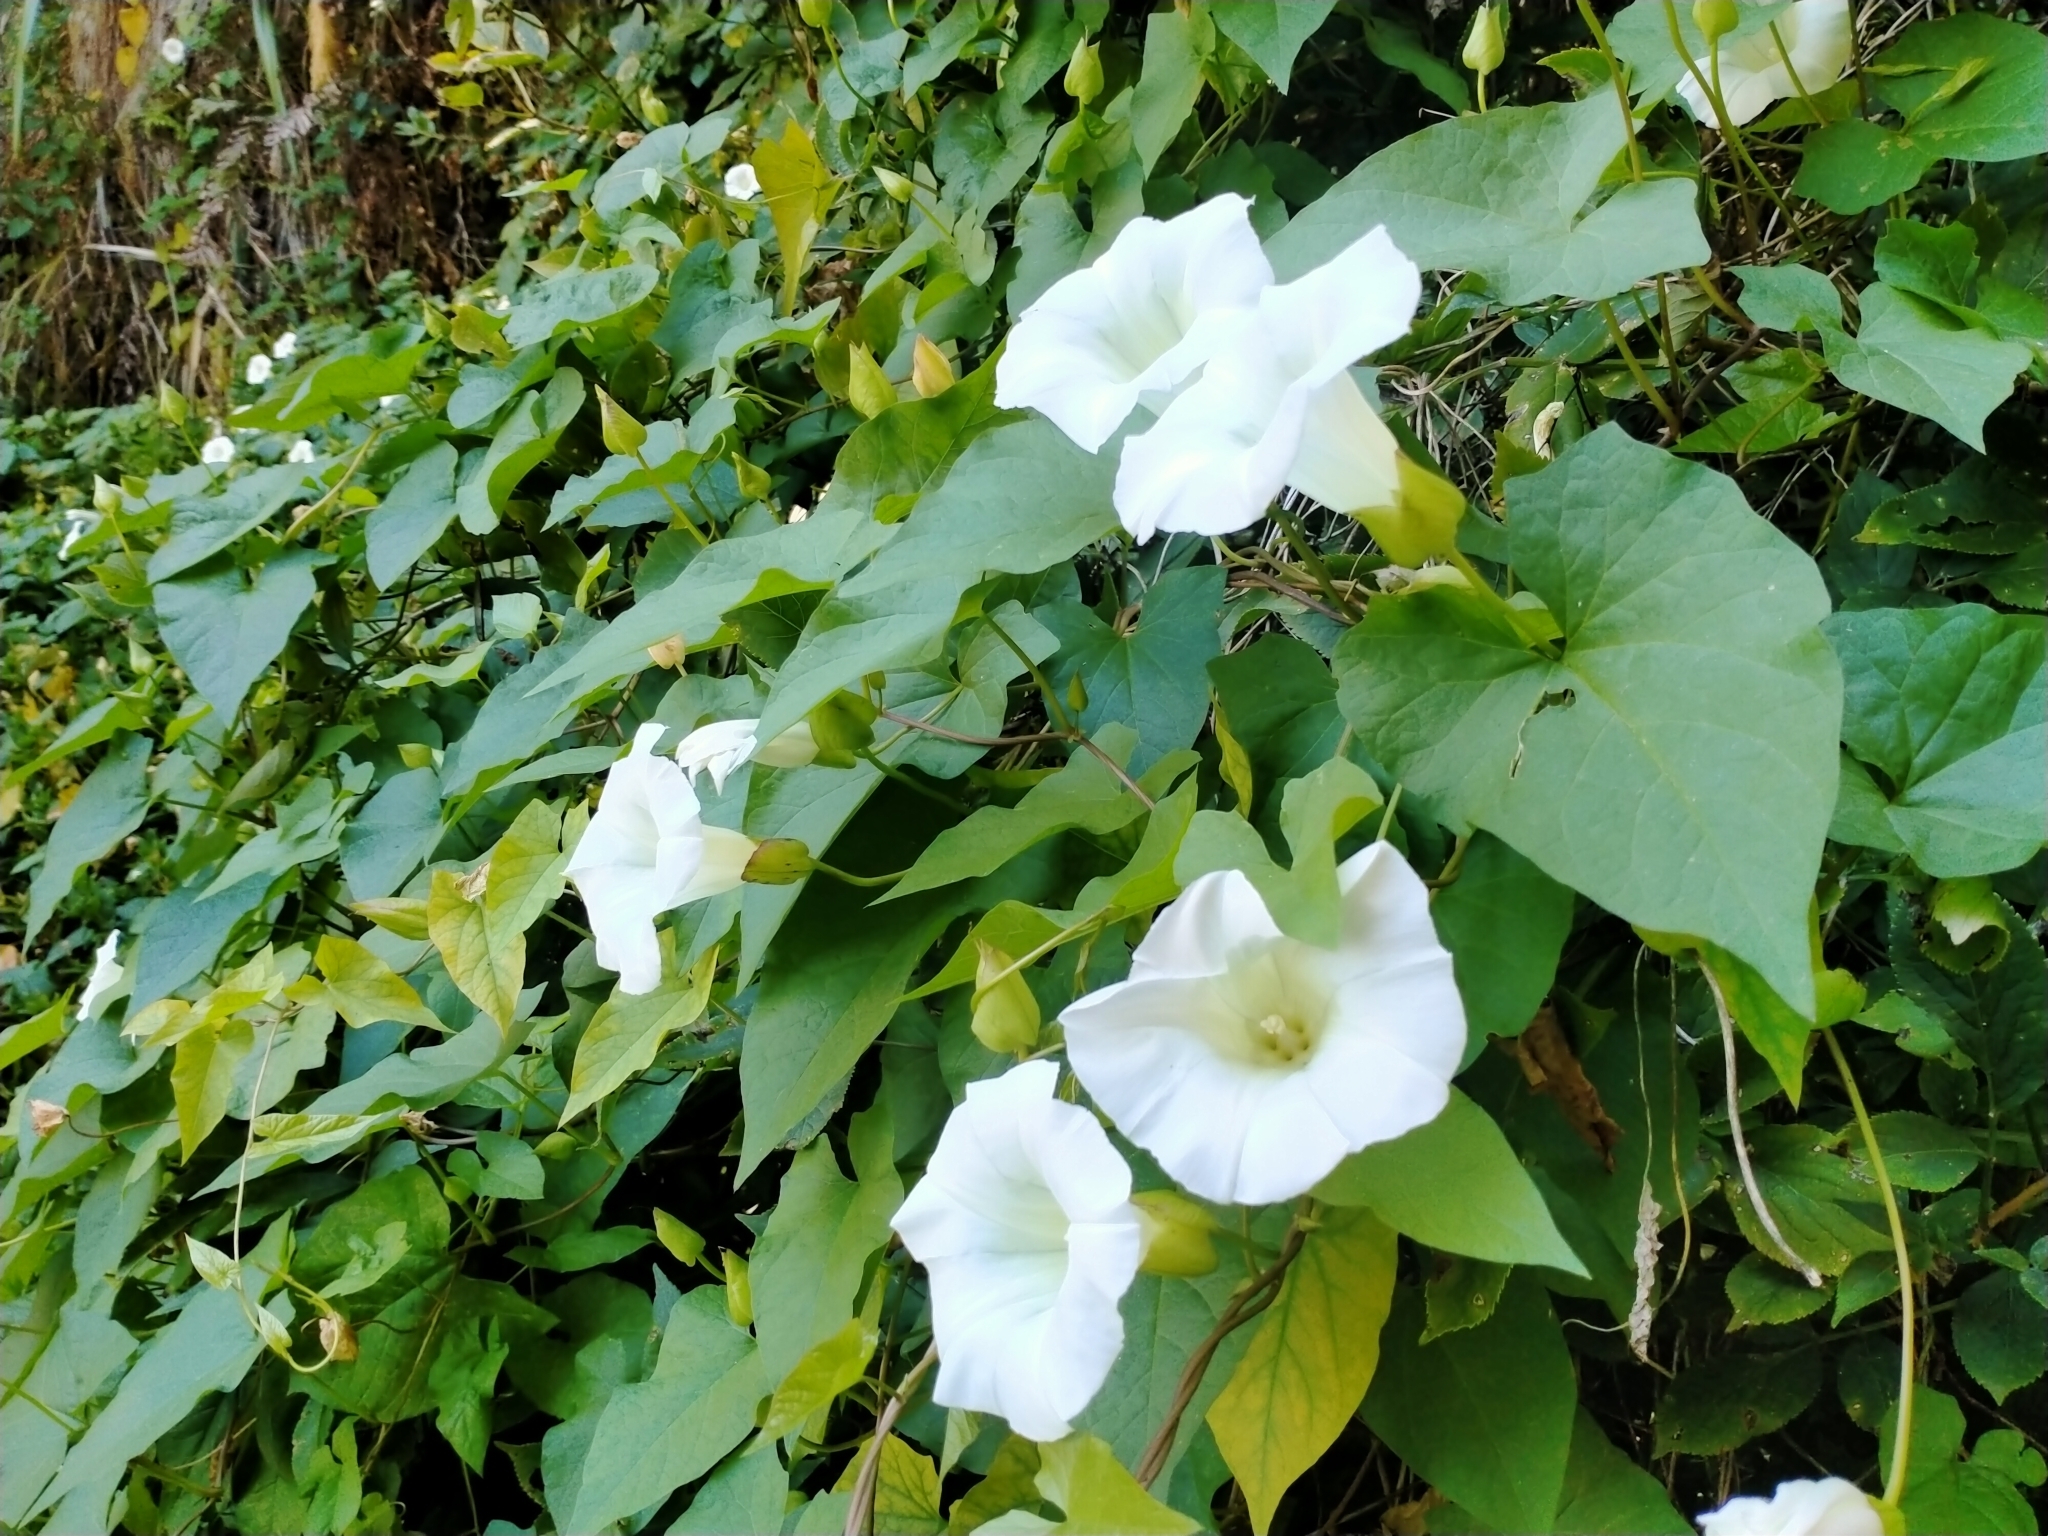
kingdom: Plantae
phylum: Tracheophyta
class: Magnoliopsida
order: Solanales
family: Convolvulaceae
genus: Calystegia
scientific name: Calystegia silvatica
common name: Large bindweed
